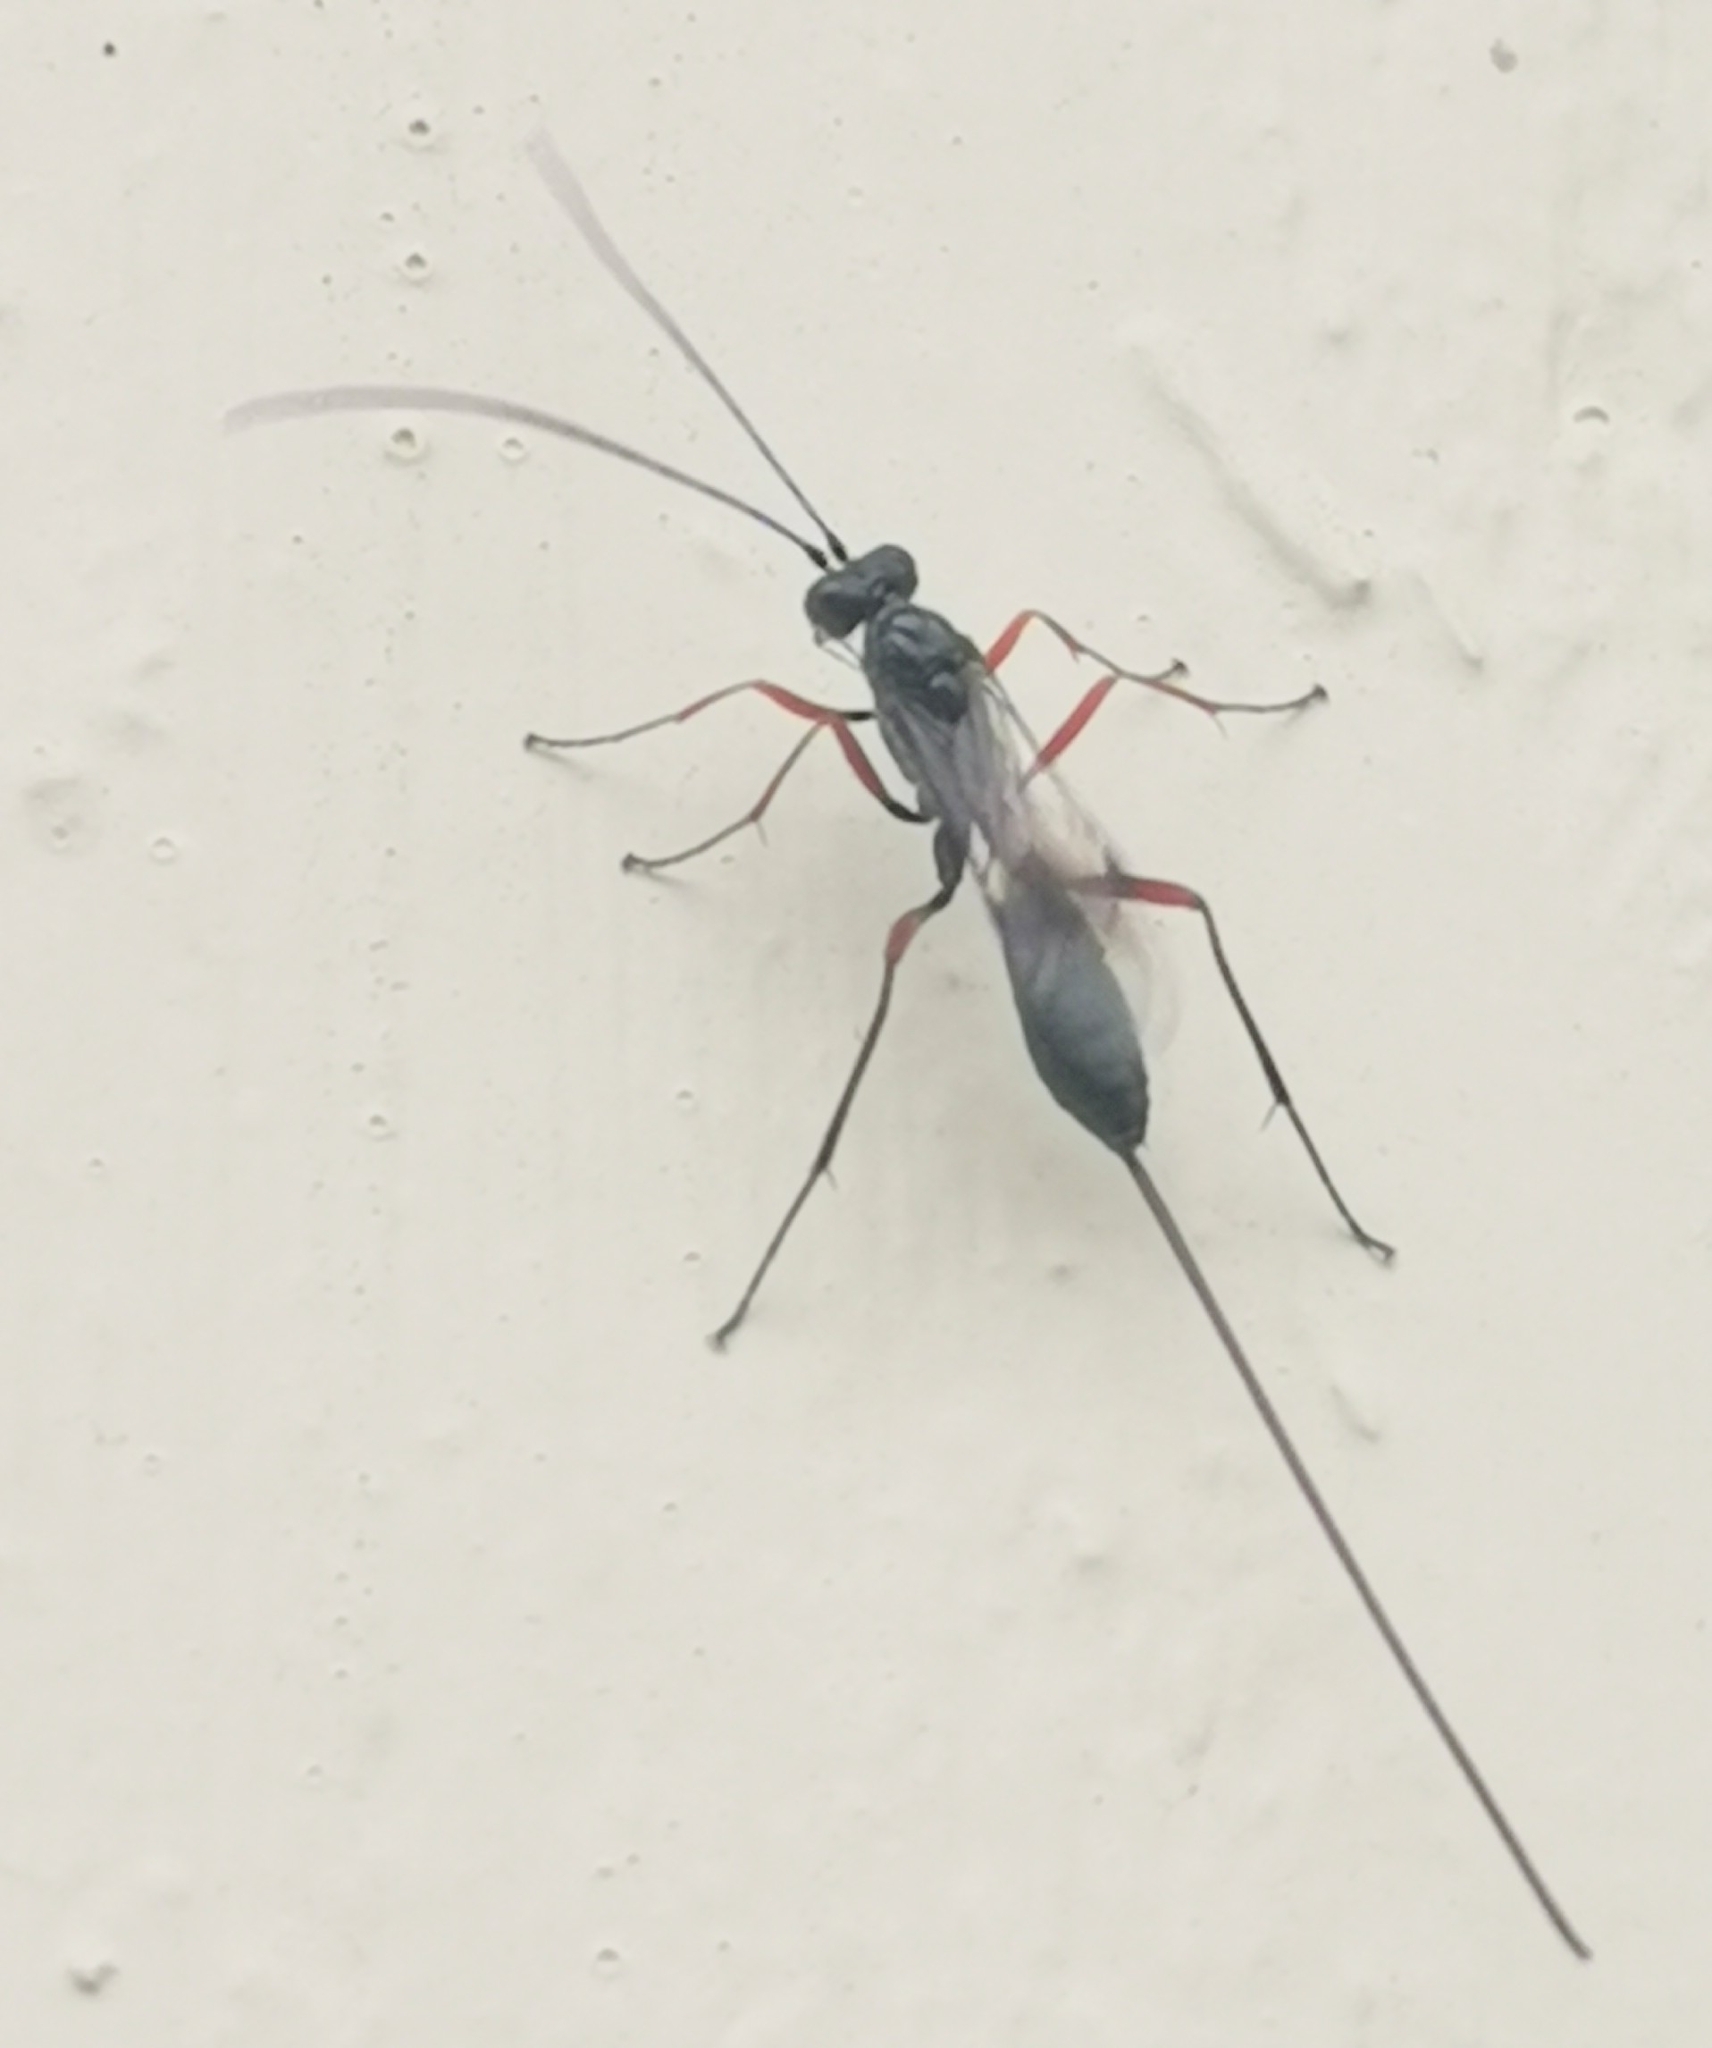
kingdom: Animalia
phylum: Arthropoda
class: Insecta
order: Hymenoptera
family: Ichneumonidae
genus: Stenarella
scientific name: Stenarella domator
